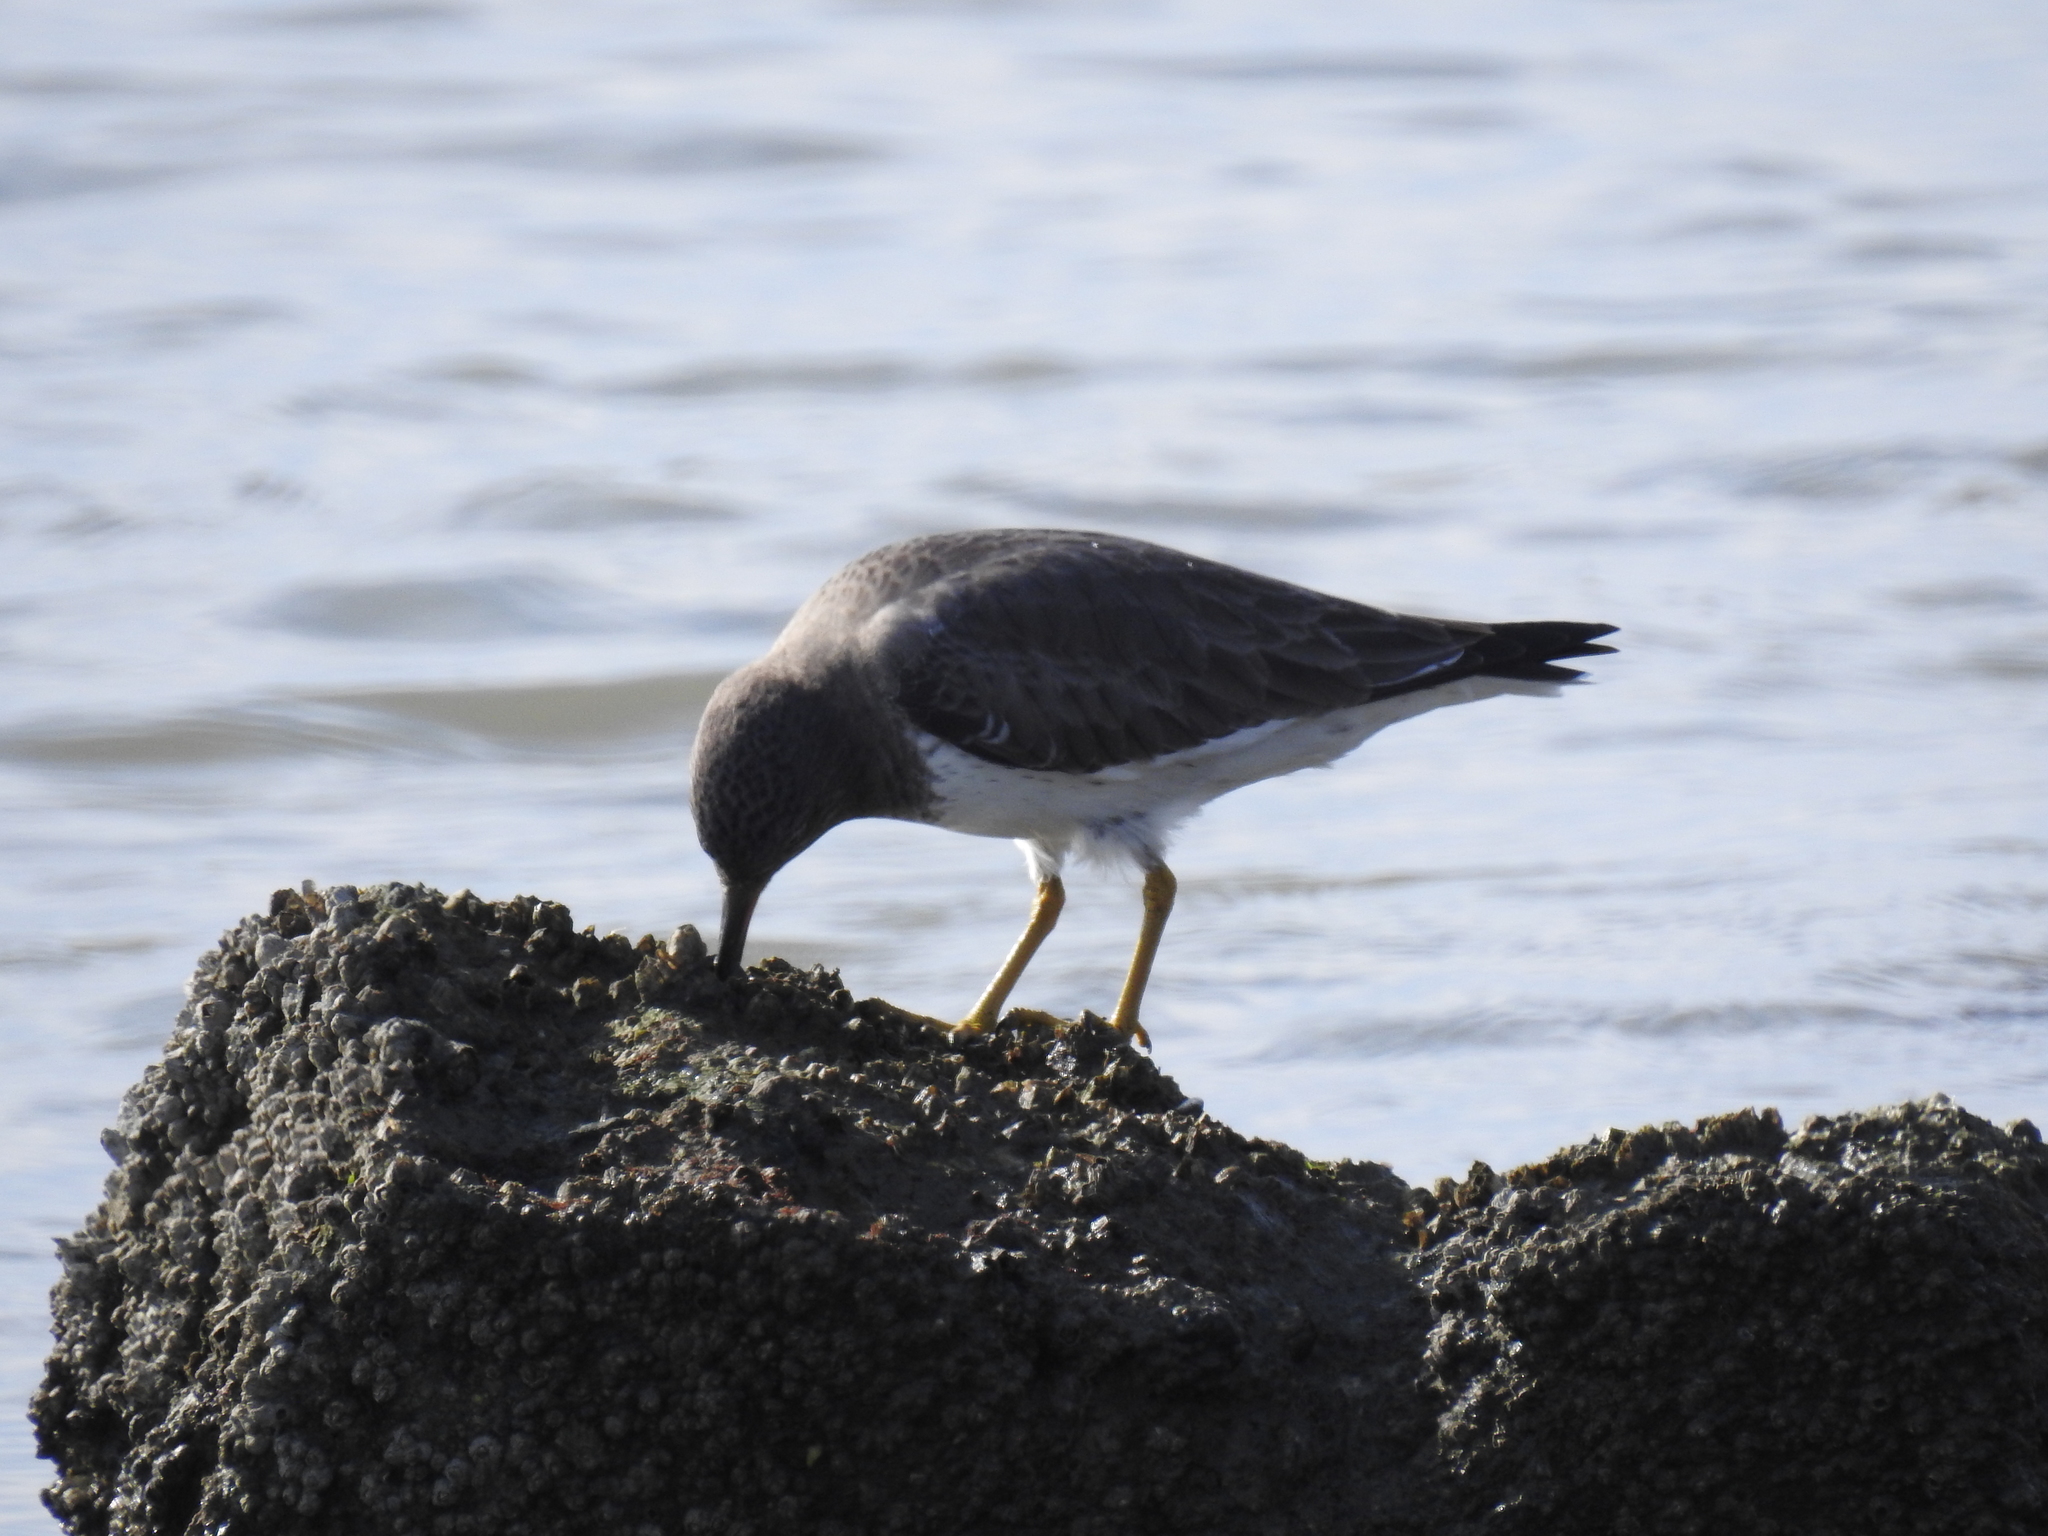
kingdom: Animalia
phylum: Chordata
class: Aves
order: Charadriiformes
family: Scolopacidae
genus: Calidris
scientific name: Calidris virgata
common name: Surfbird
